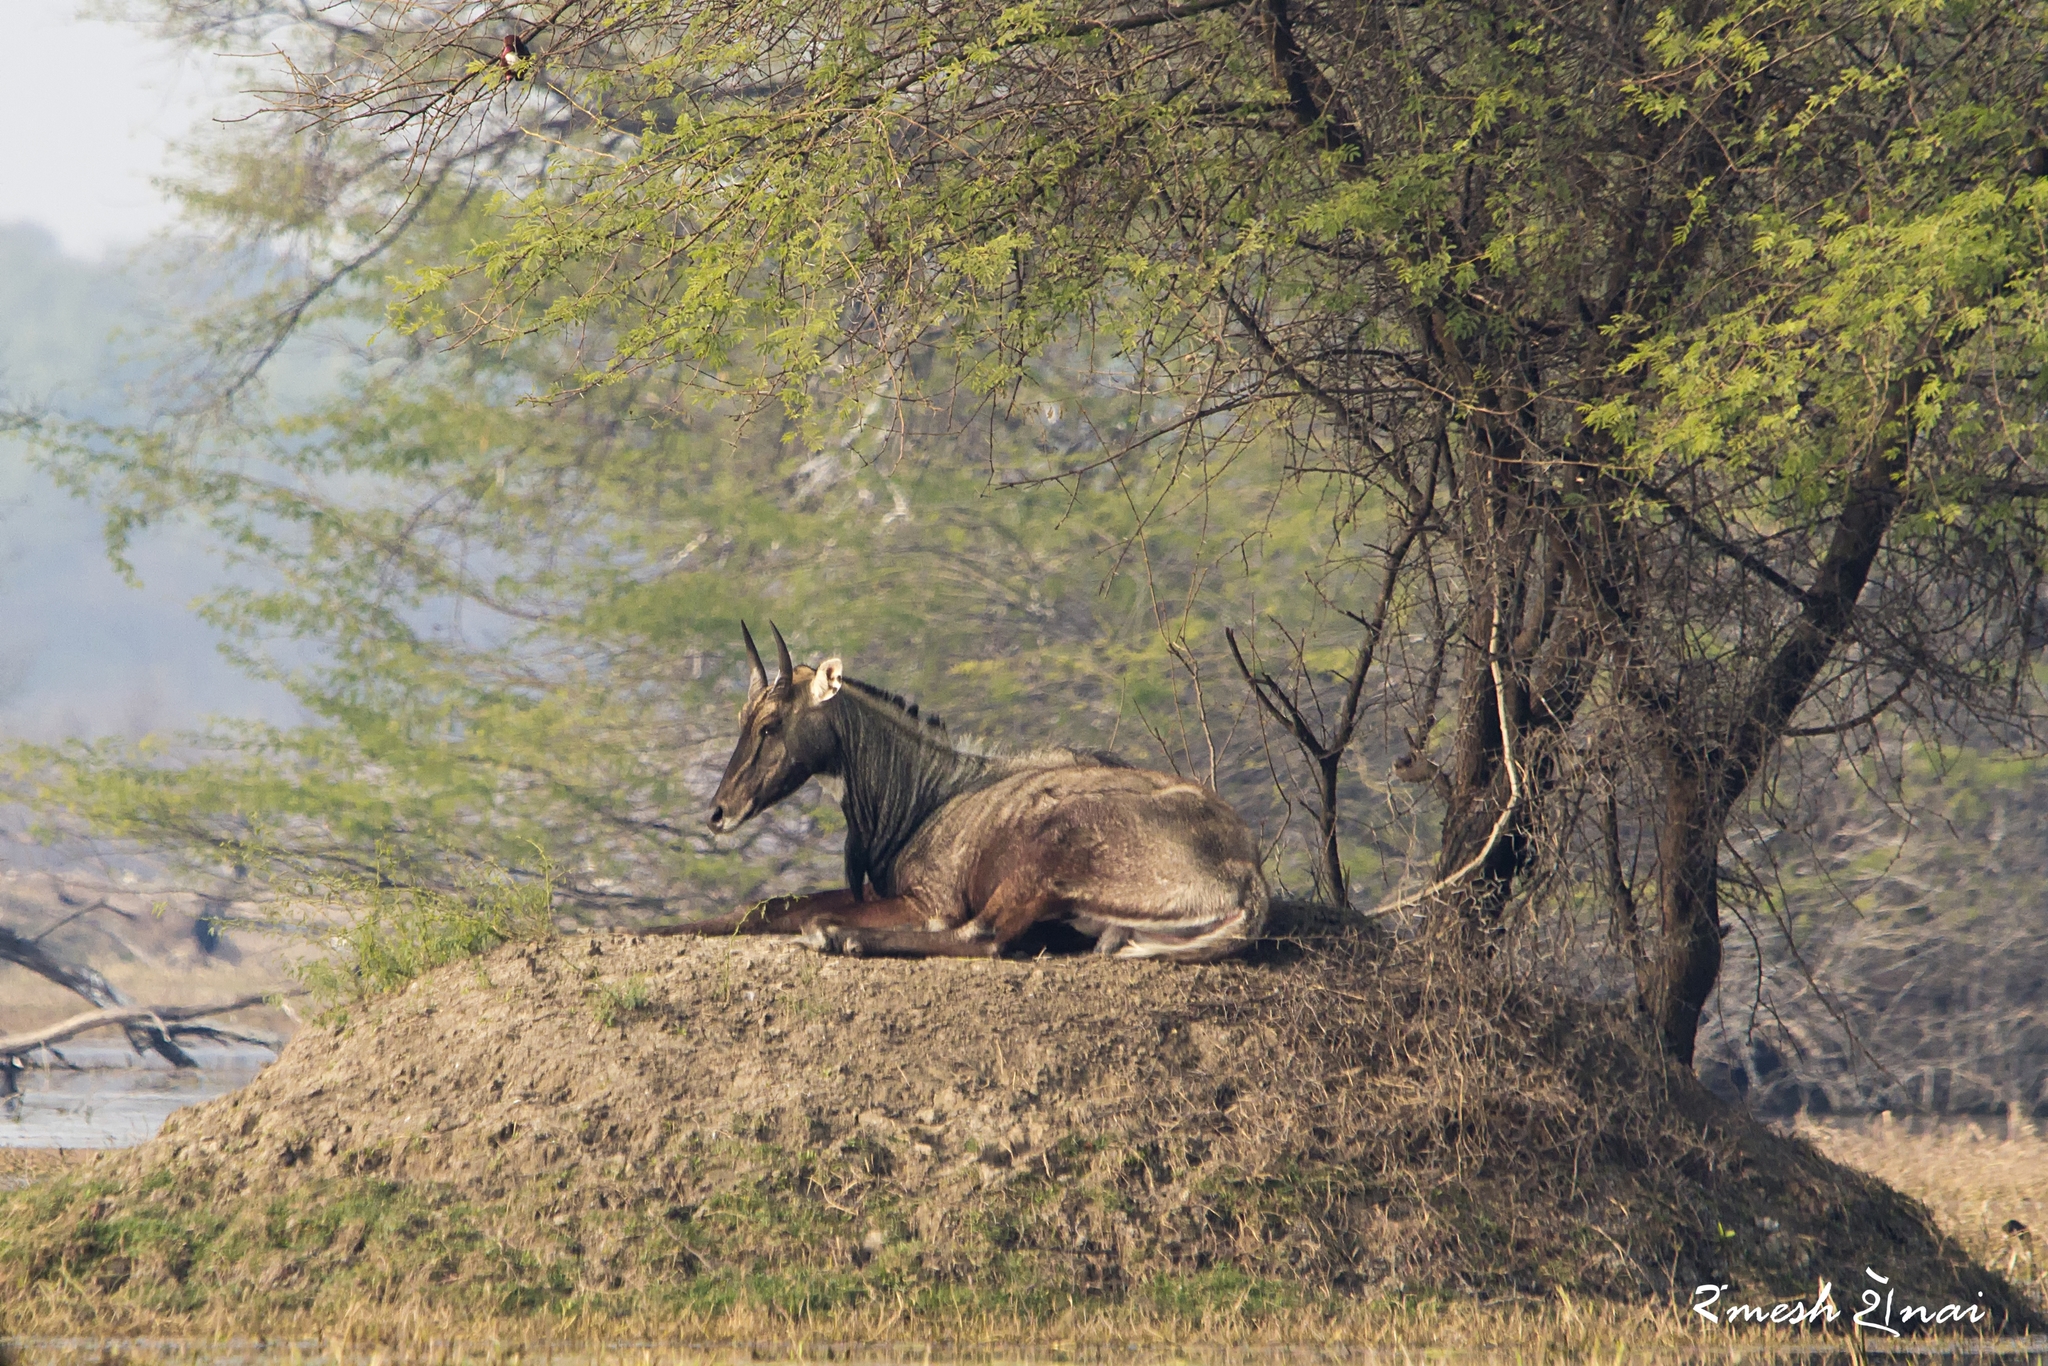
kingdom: Animalia
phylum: Chordata
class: Mammalia
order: Artiodactyla
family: Bovidae
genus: Boselaphus
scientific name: Boselaphus tragocamelus
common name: Nilgai
